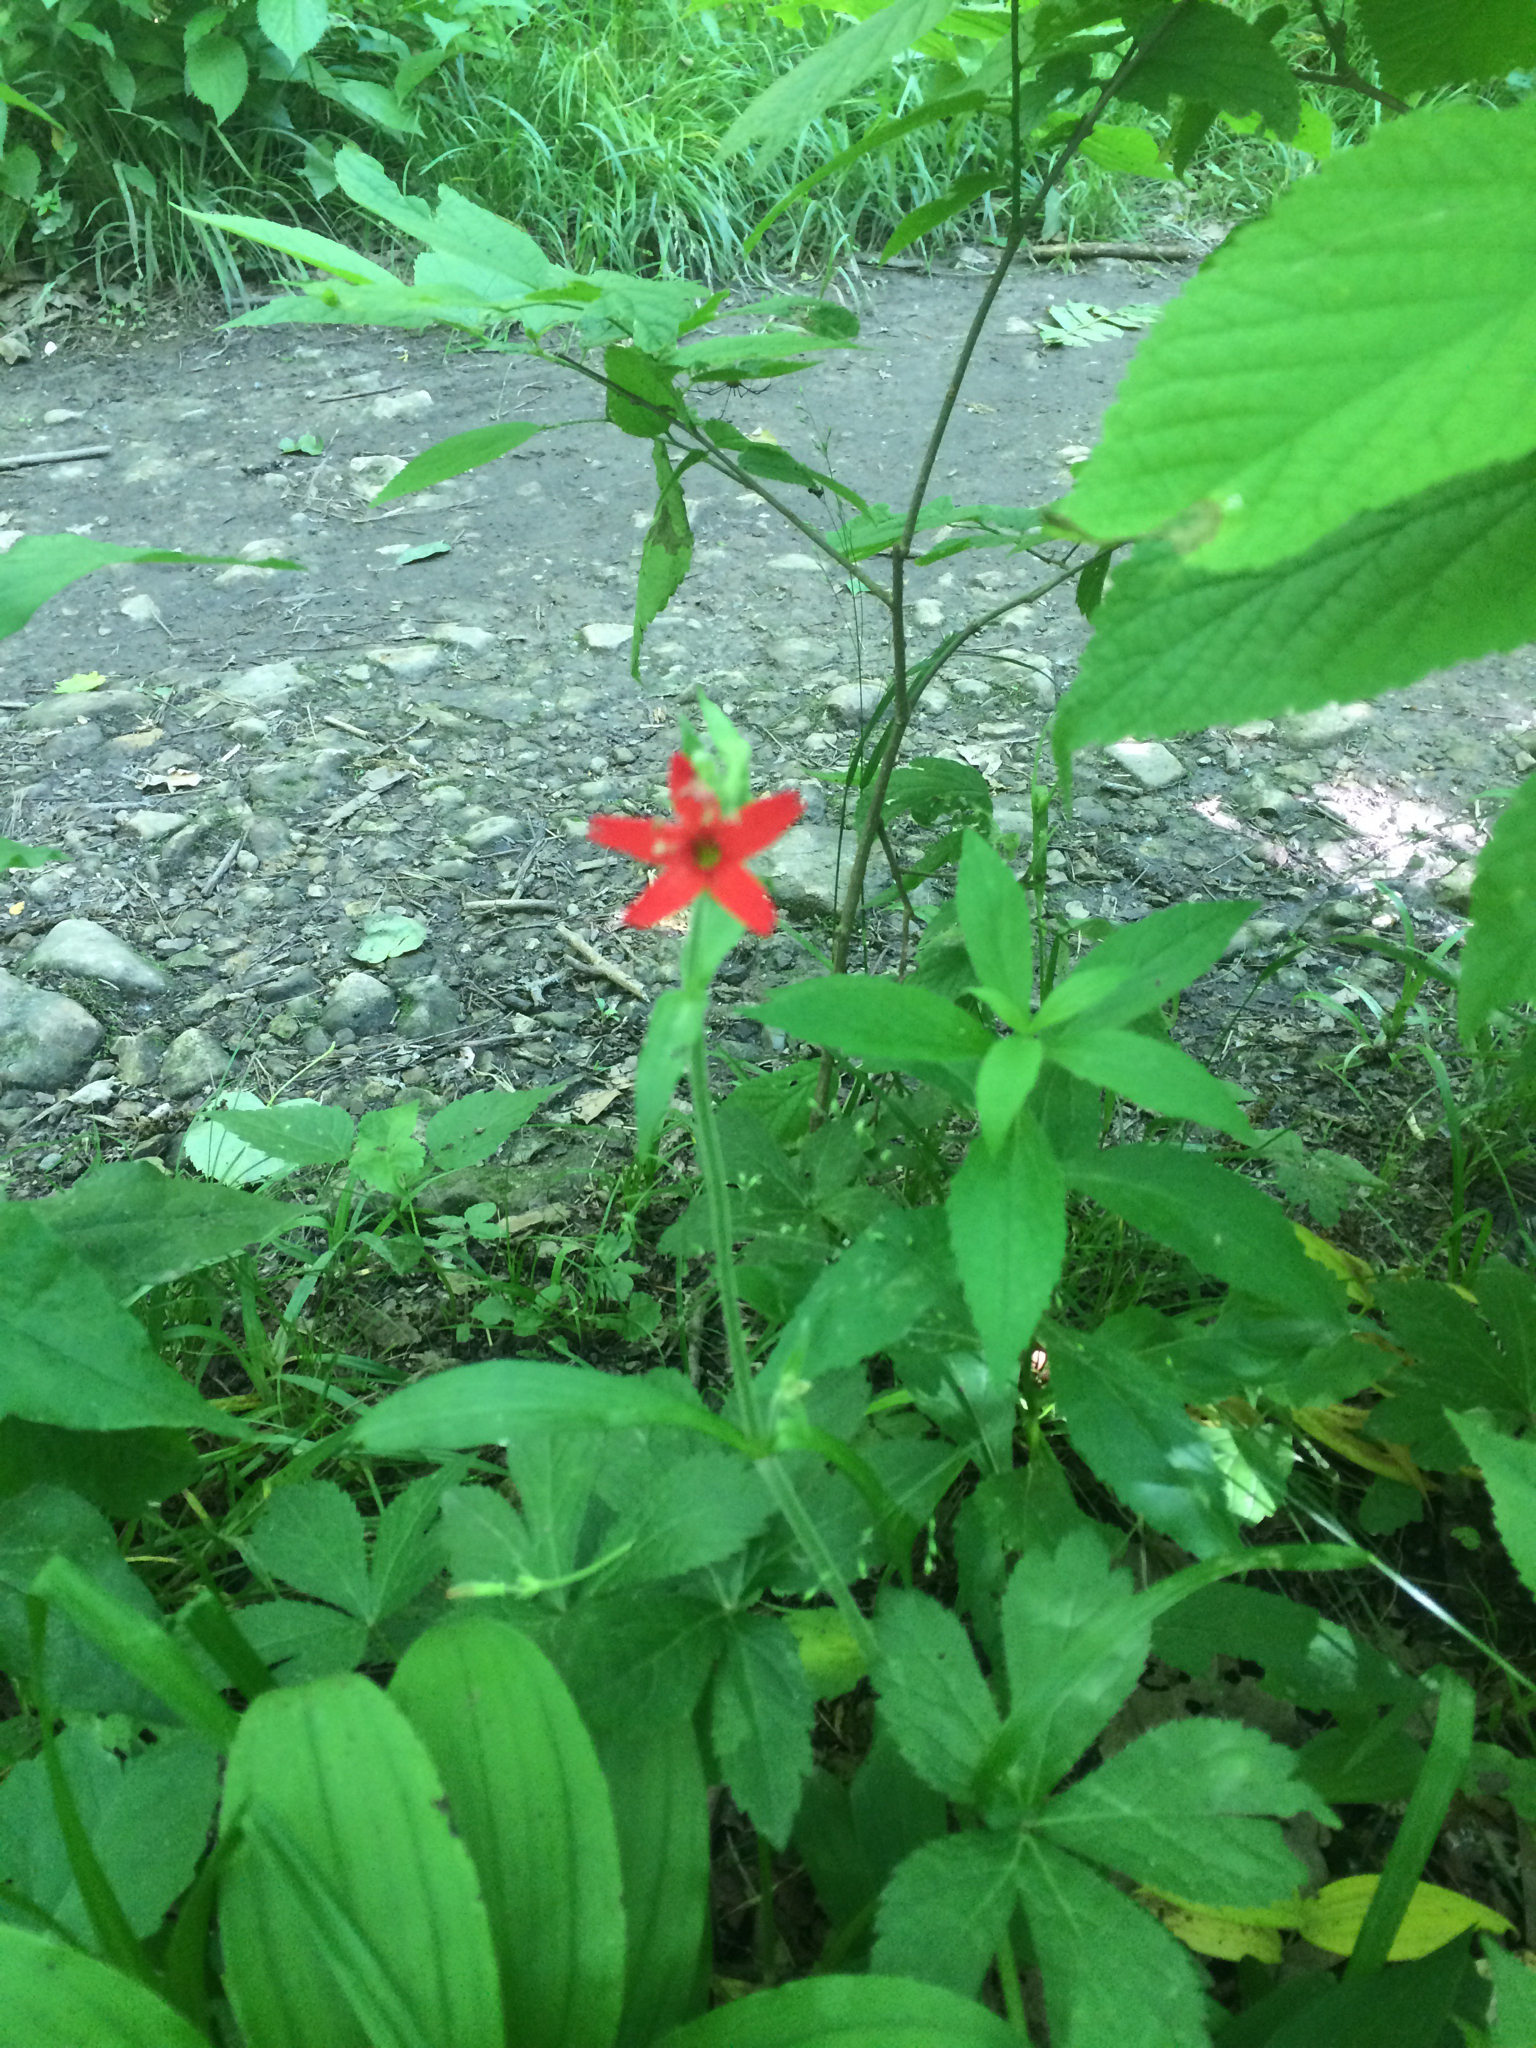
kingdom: Plantae
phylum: Tracheophyta
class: Magnoliopsida
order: Caryophyllales
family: Caryophyllaceae
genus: Silene
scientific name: Silene virginica
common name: Fire-pink
